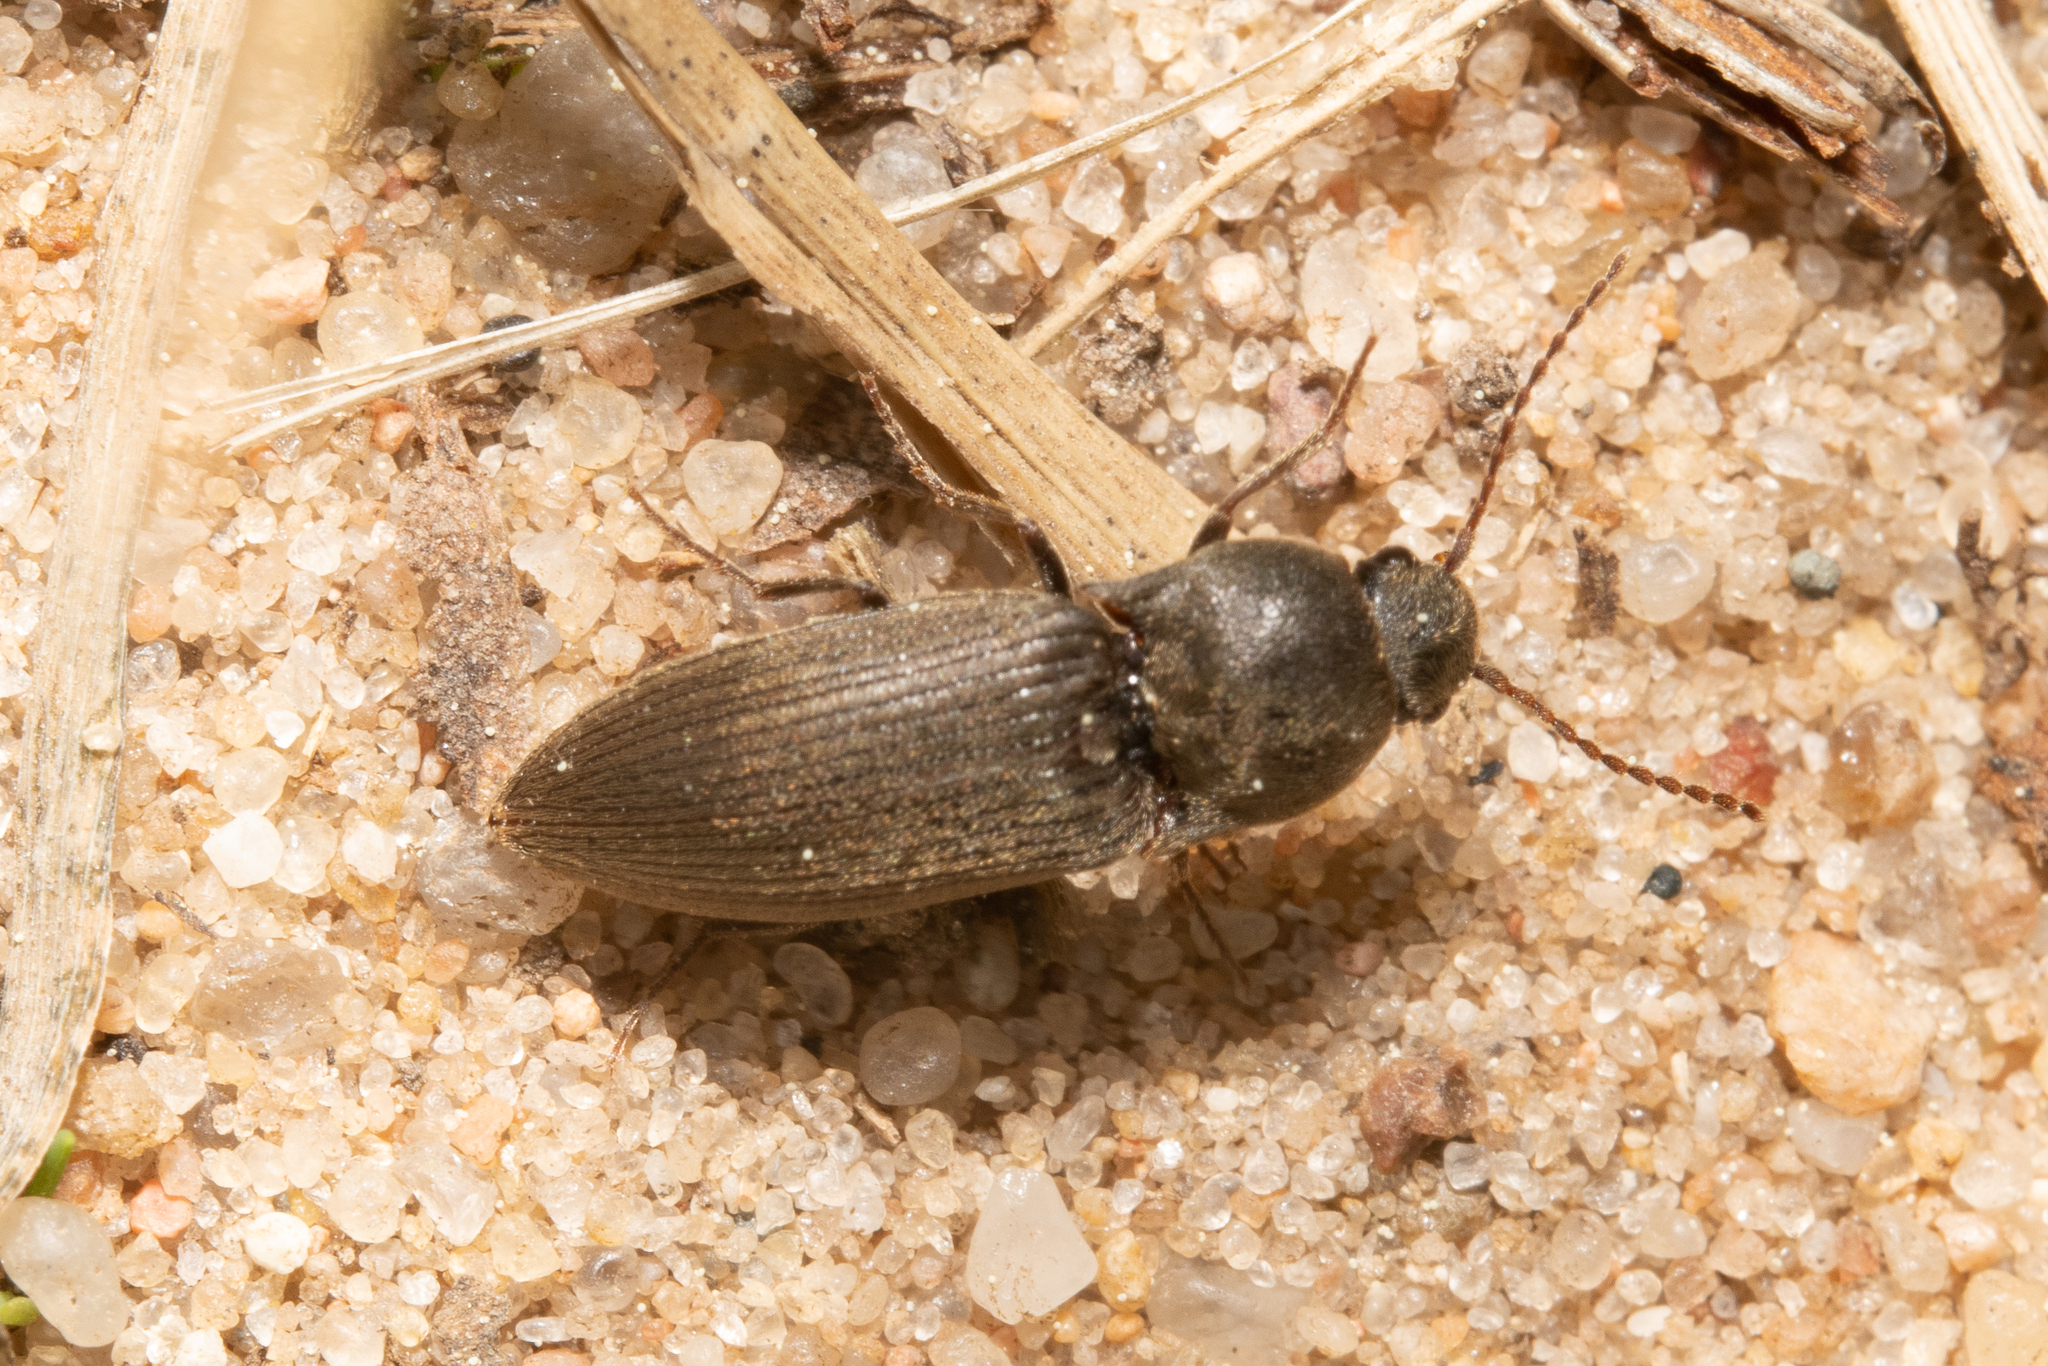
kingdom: Animalia
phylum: Arthropoda
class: Insecta
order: Coleoptera
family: Elateridae
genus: Agriotes
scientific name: Agriotes obscurus
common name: Dusky wireworm
